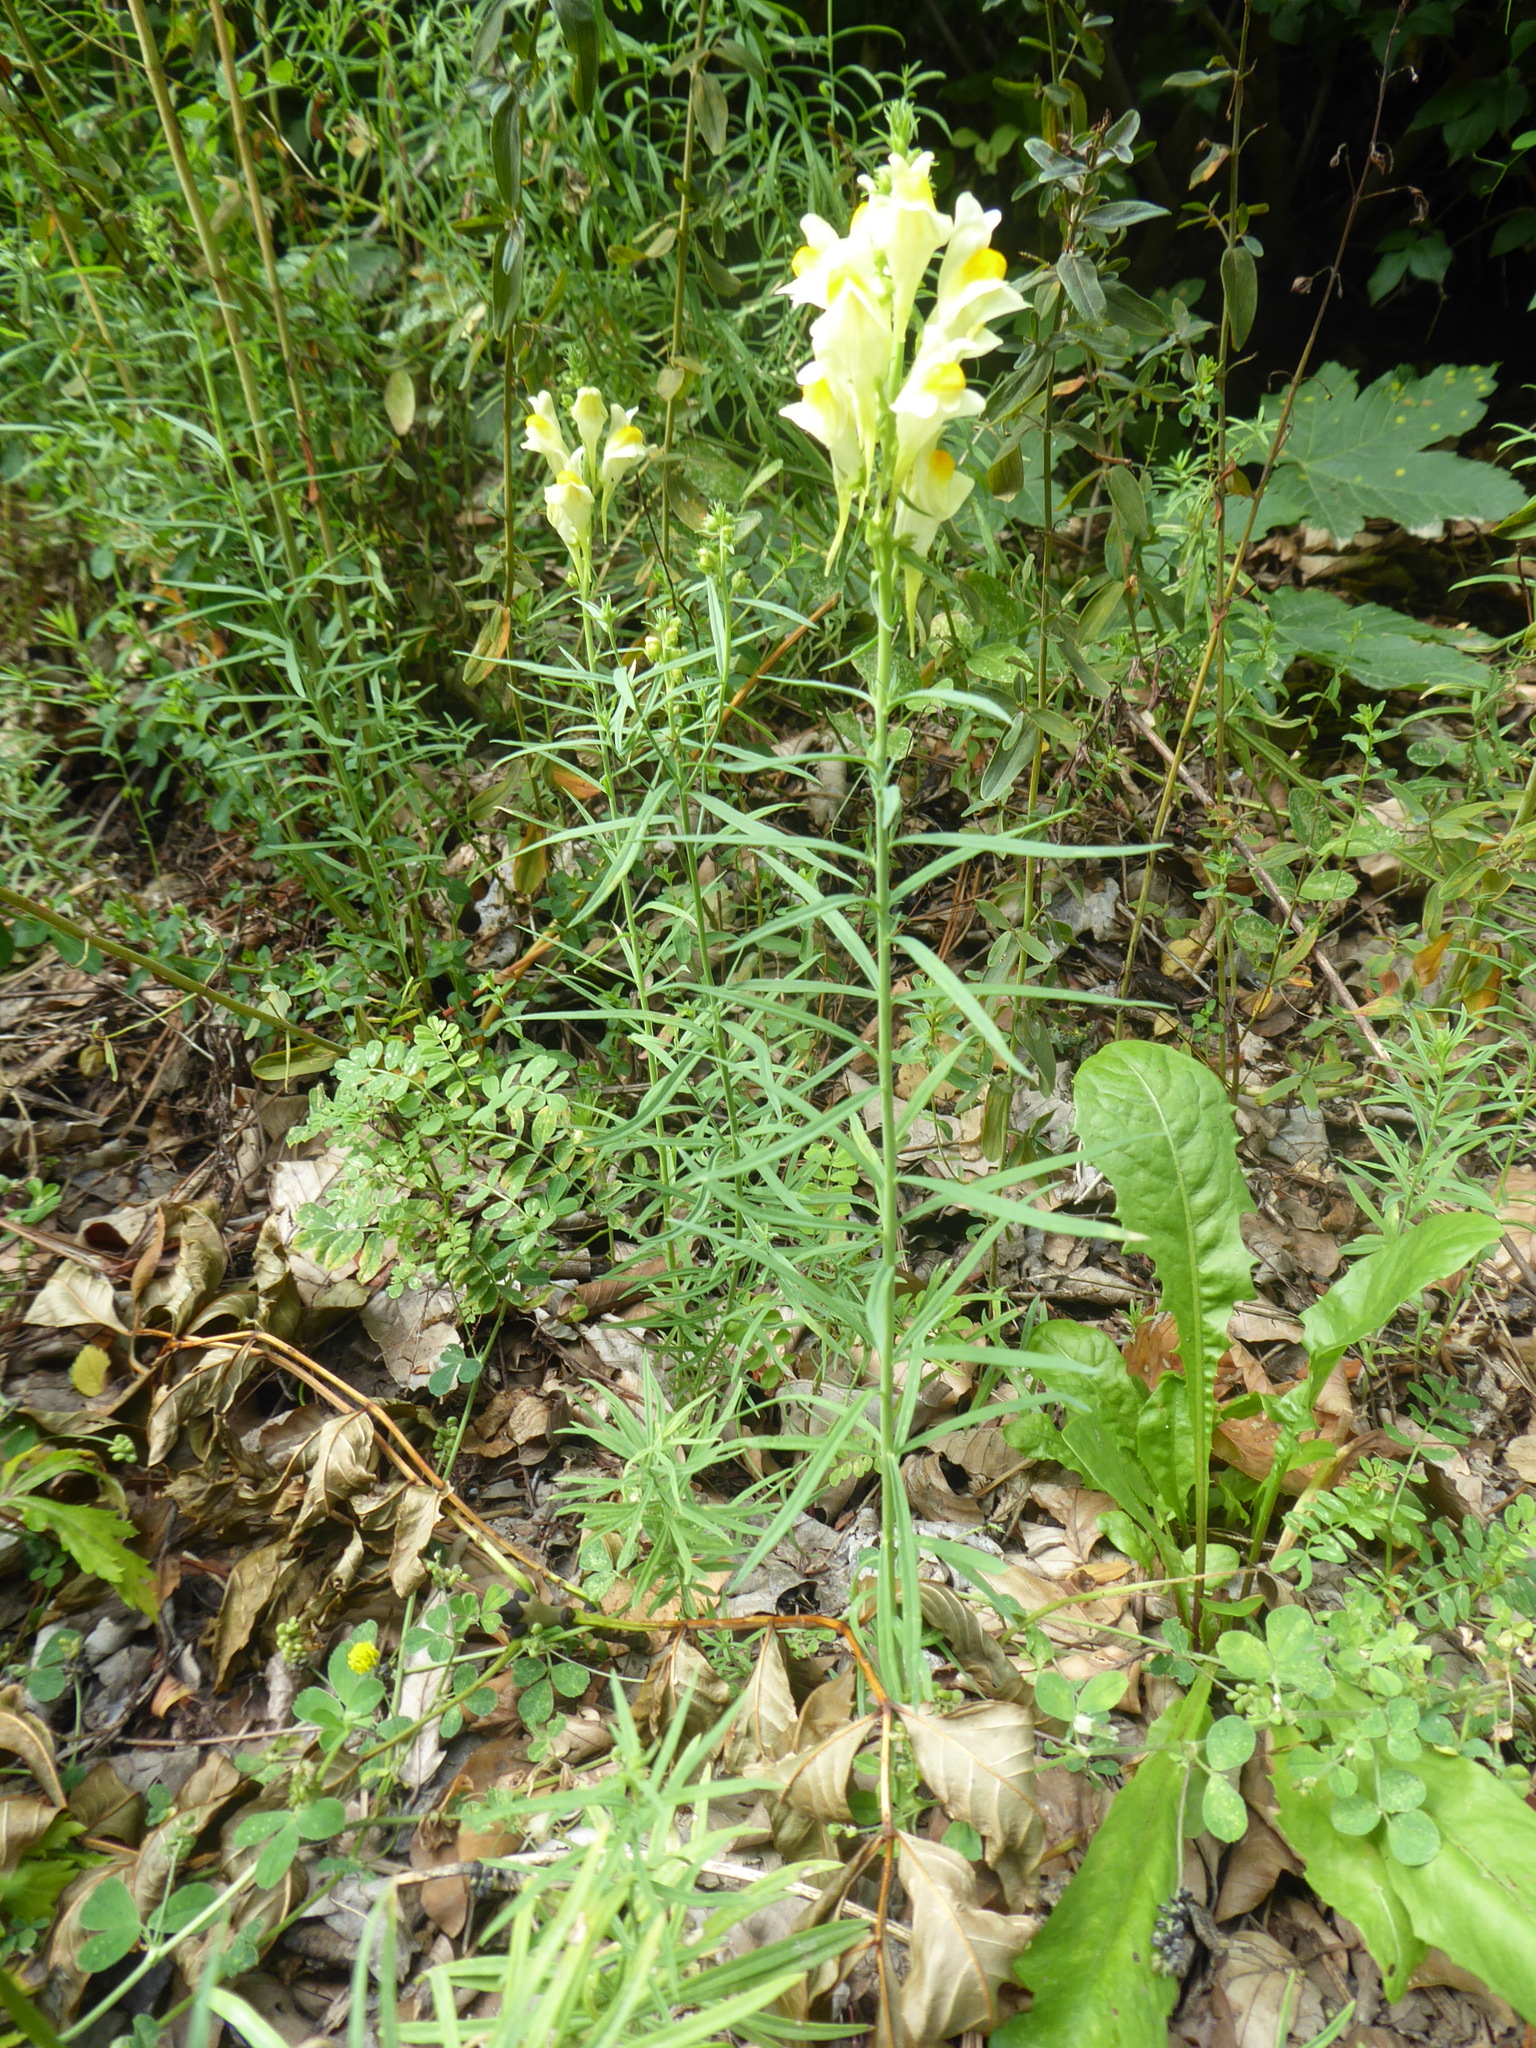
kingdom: Plantae
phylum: Tracheophyta
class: Magnoliopsida
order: Lamiales
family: Plantaginaceae
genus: Linaria
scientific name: Linaria vulgaris
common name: Butter and eggs
